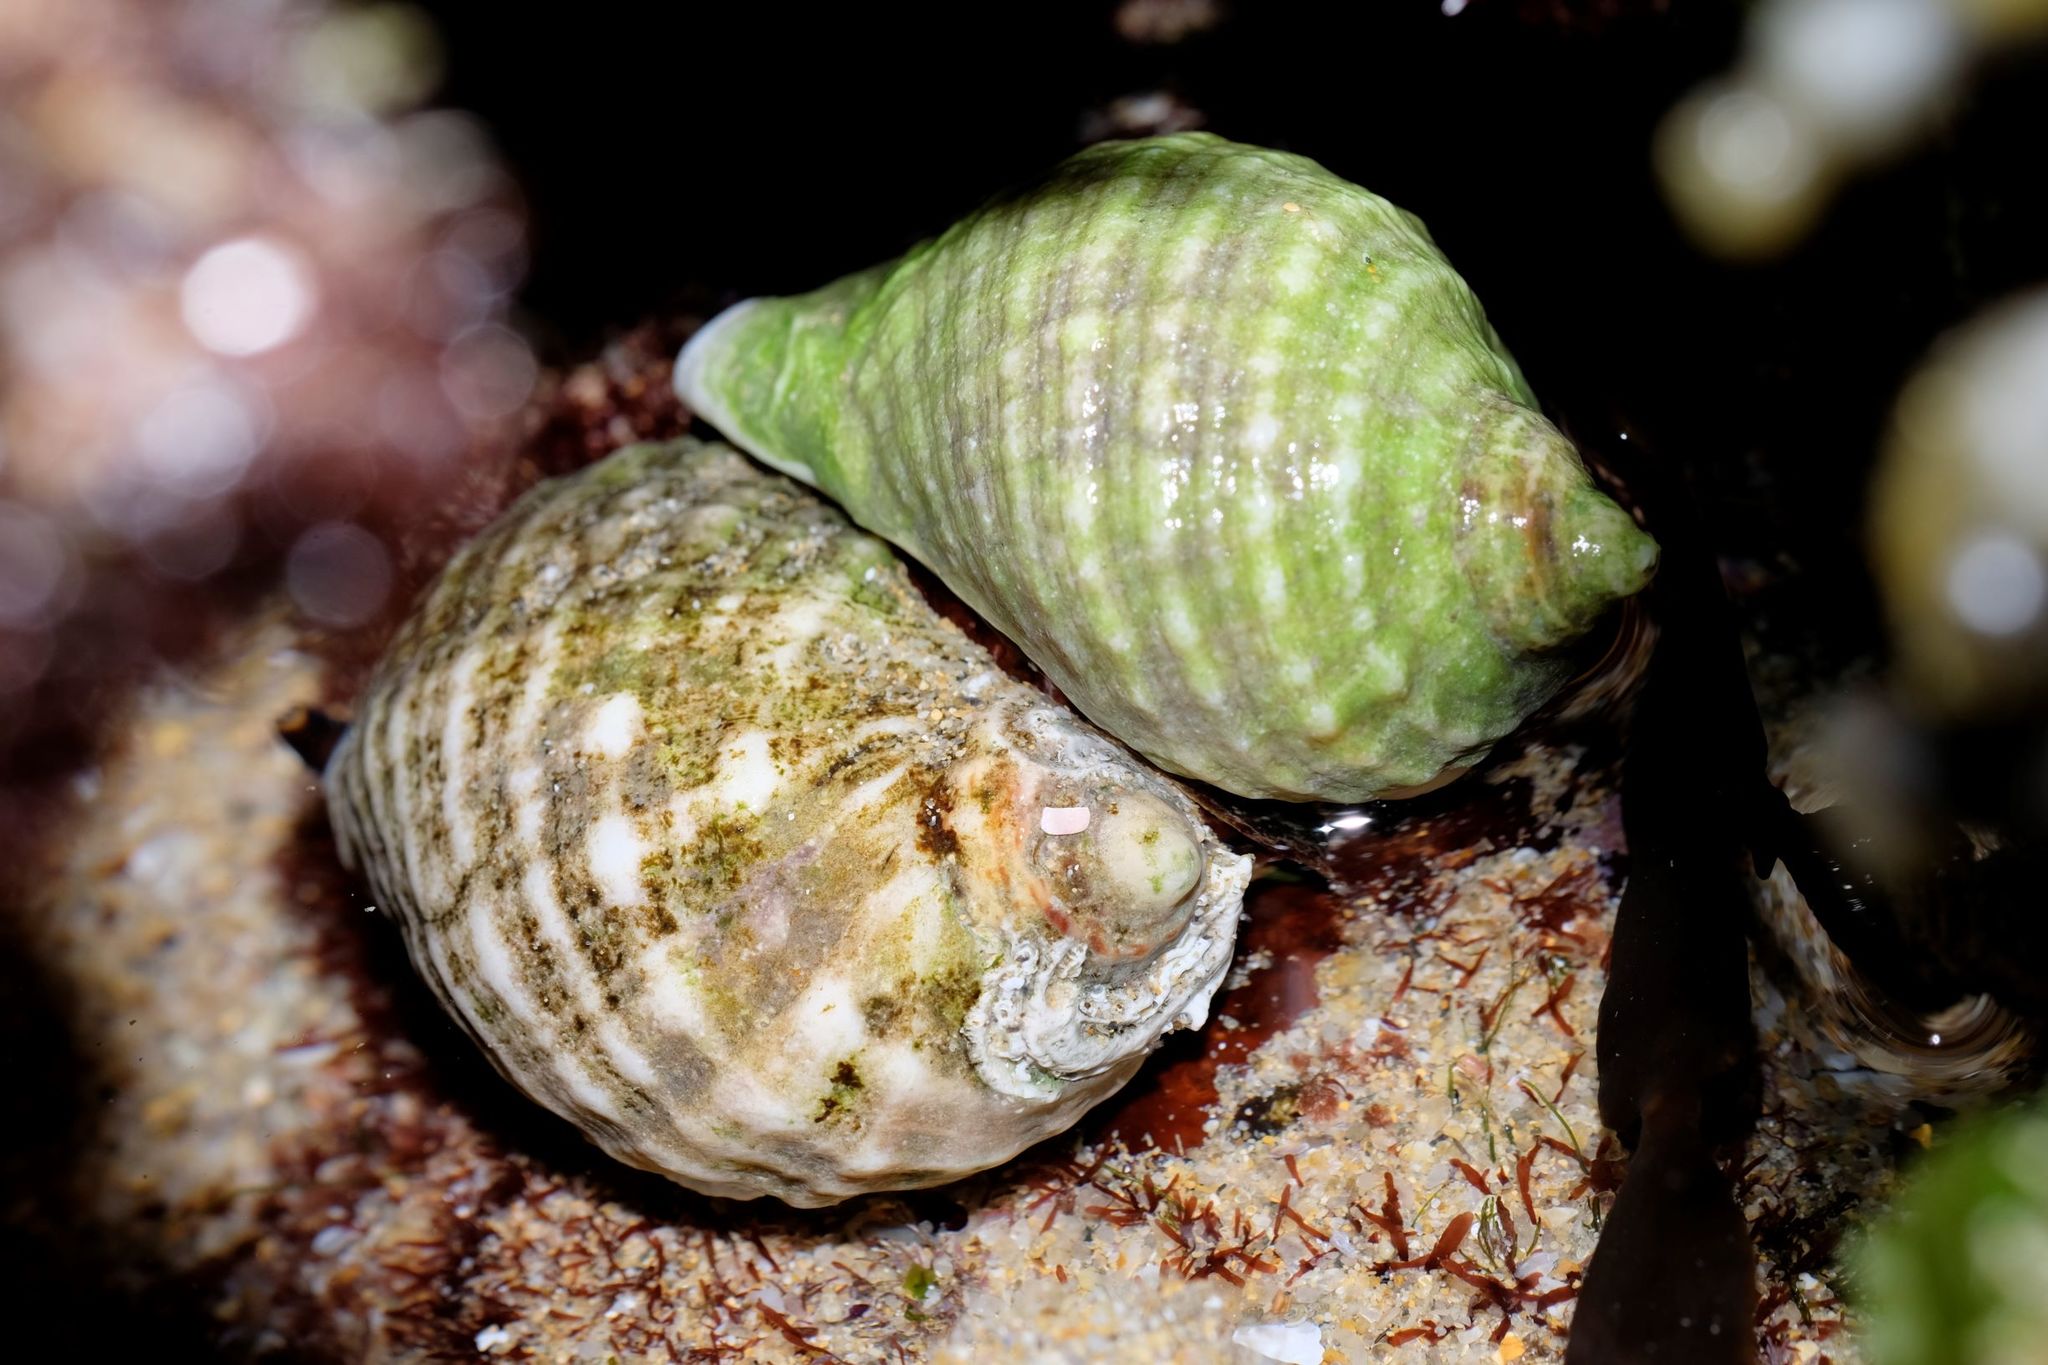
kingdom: Animalia
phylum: Mollusca
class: Gastropoda
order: Neogastropoda
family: Muricidae
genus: Dicathais
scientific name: Dicathais orbita
